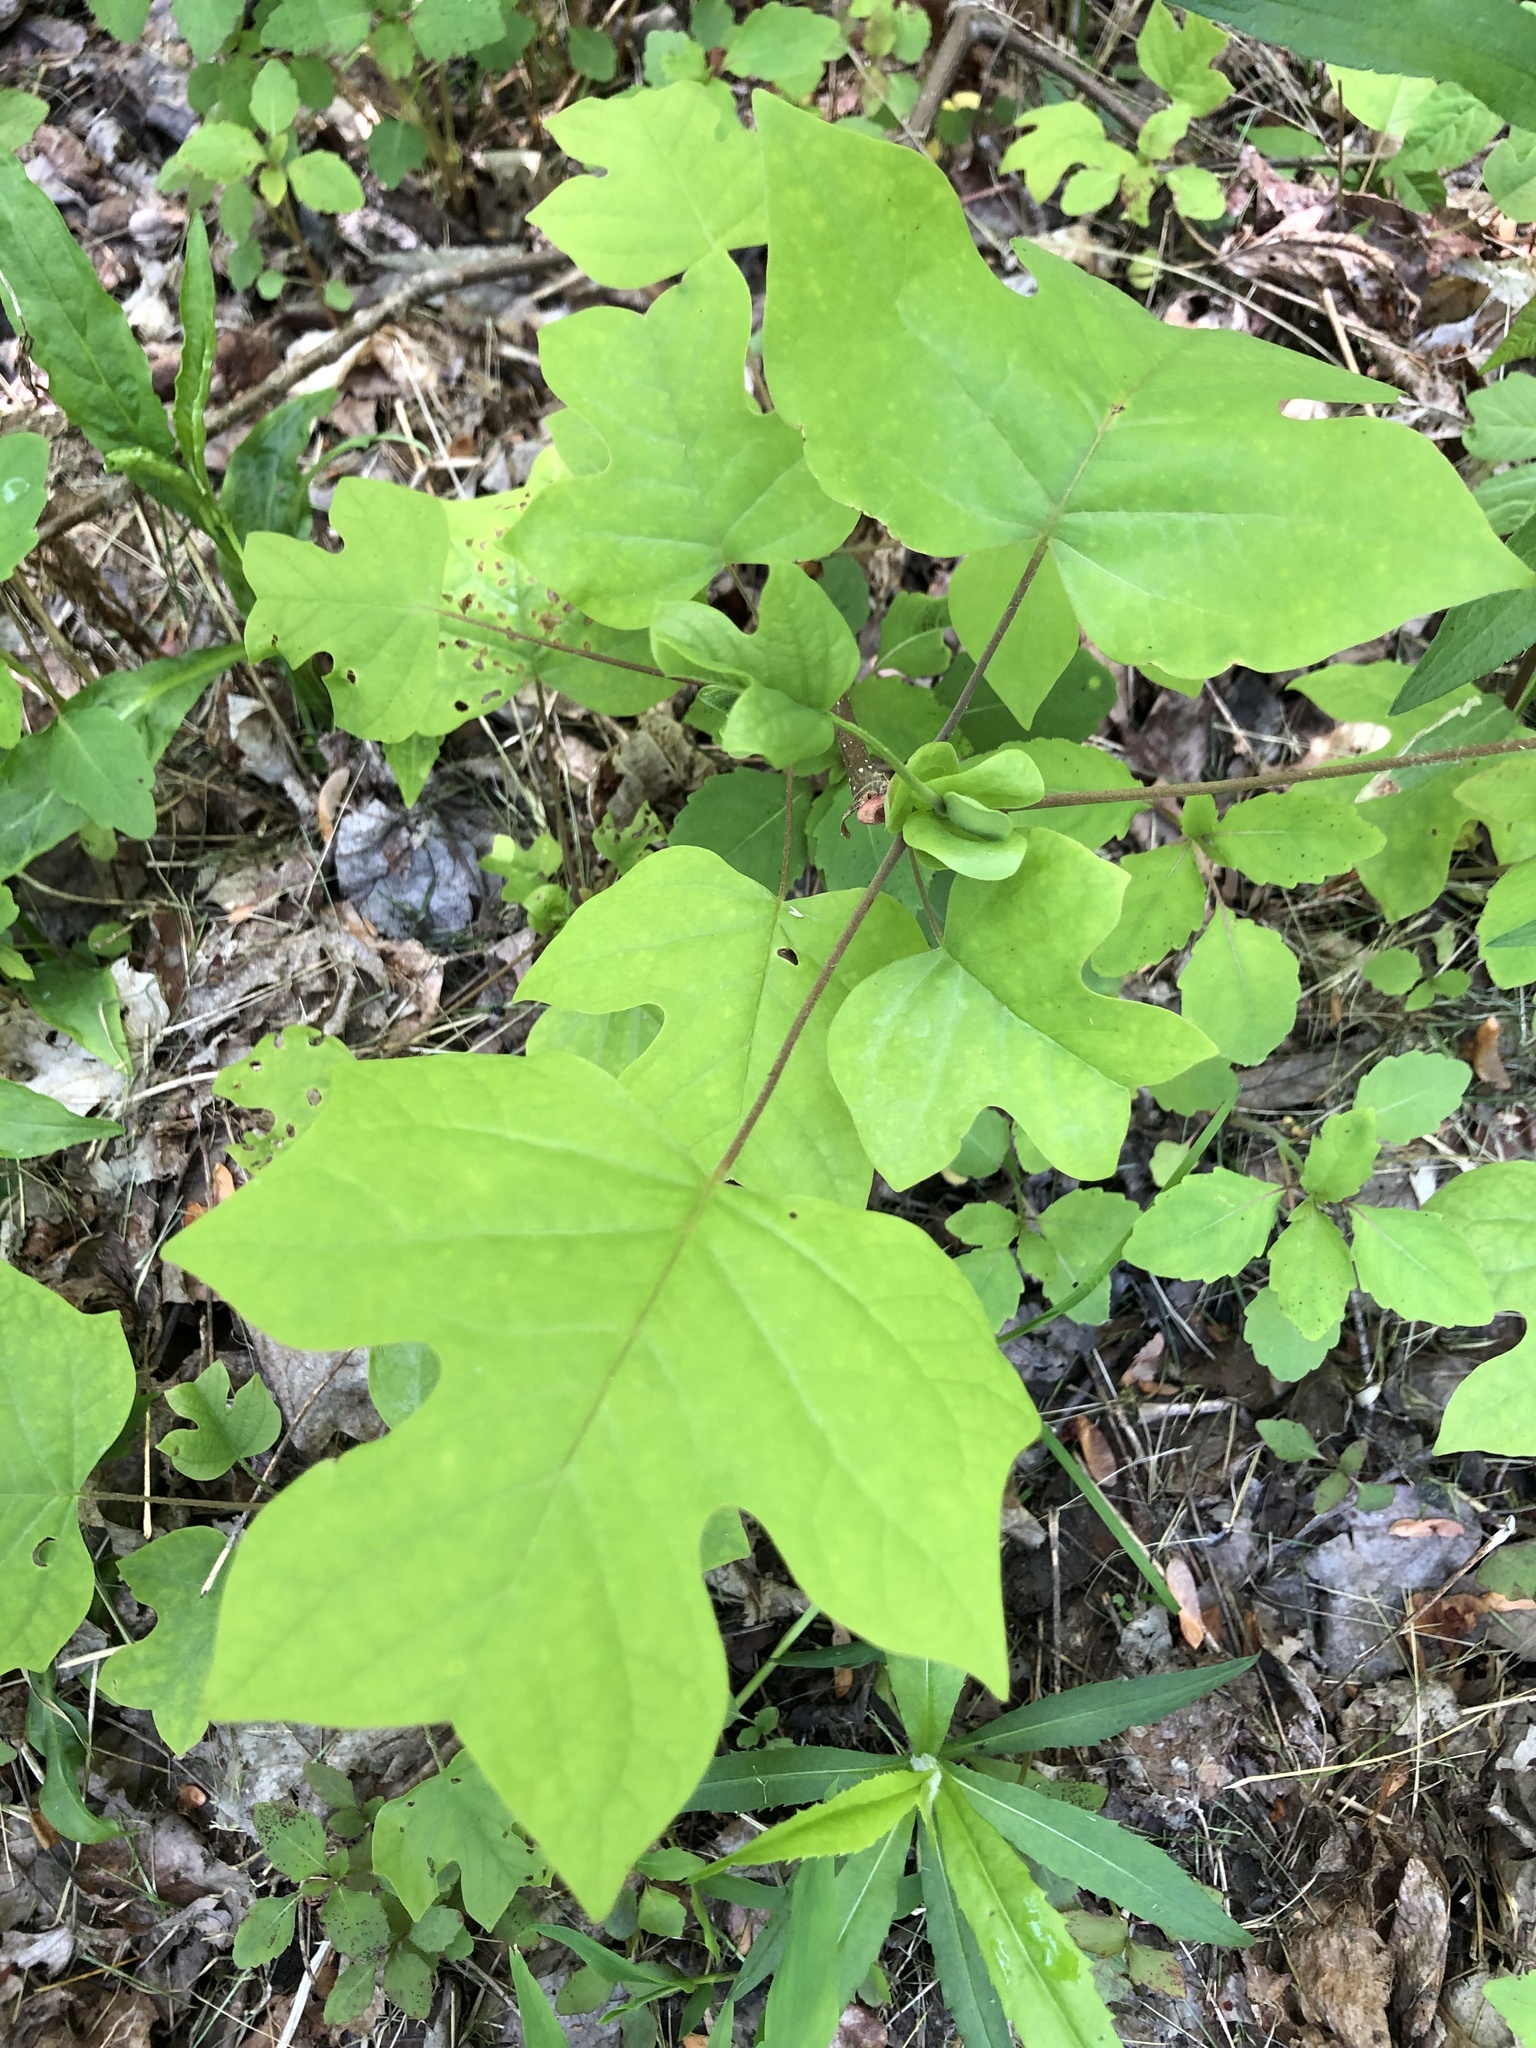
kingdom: Plantae
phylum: Tracheophyta
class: Magnoliopsida
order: Magnoliales
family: Magnoliaceae
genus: Liriodendron
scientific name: Liriodendron tulipifera
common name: Tulip tree
